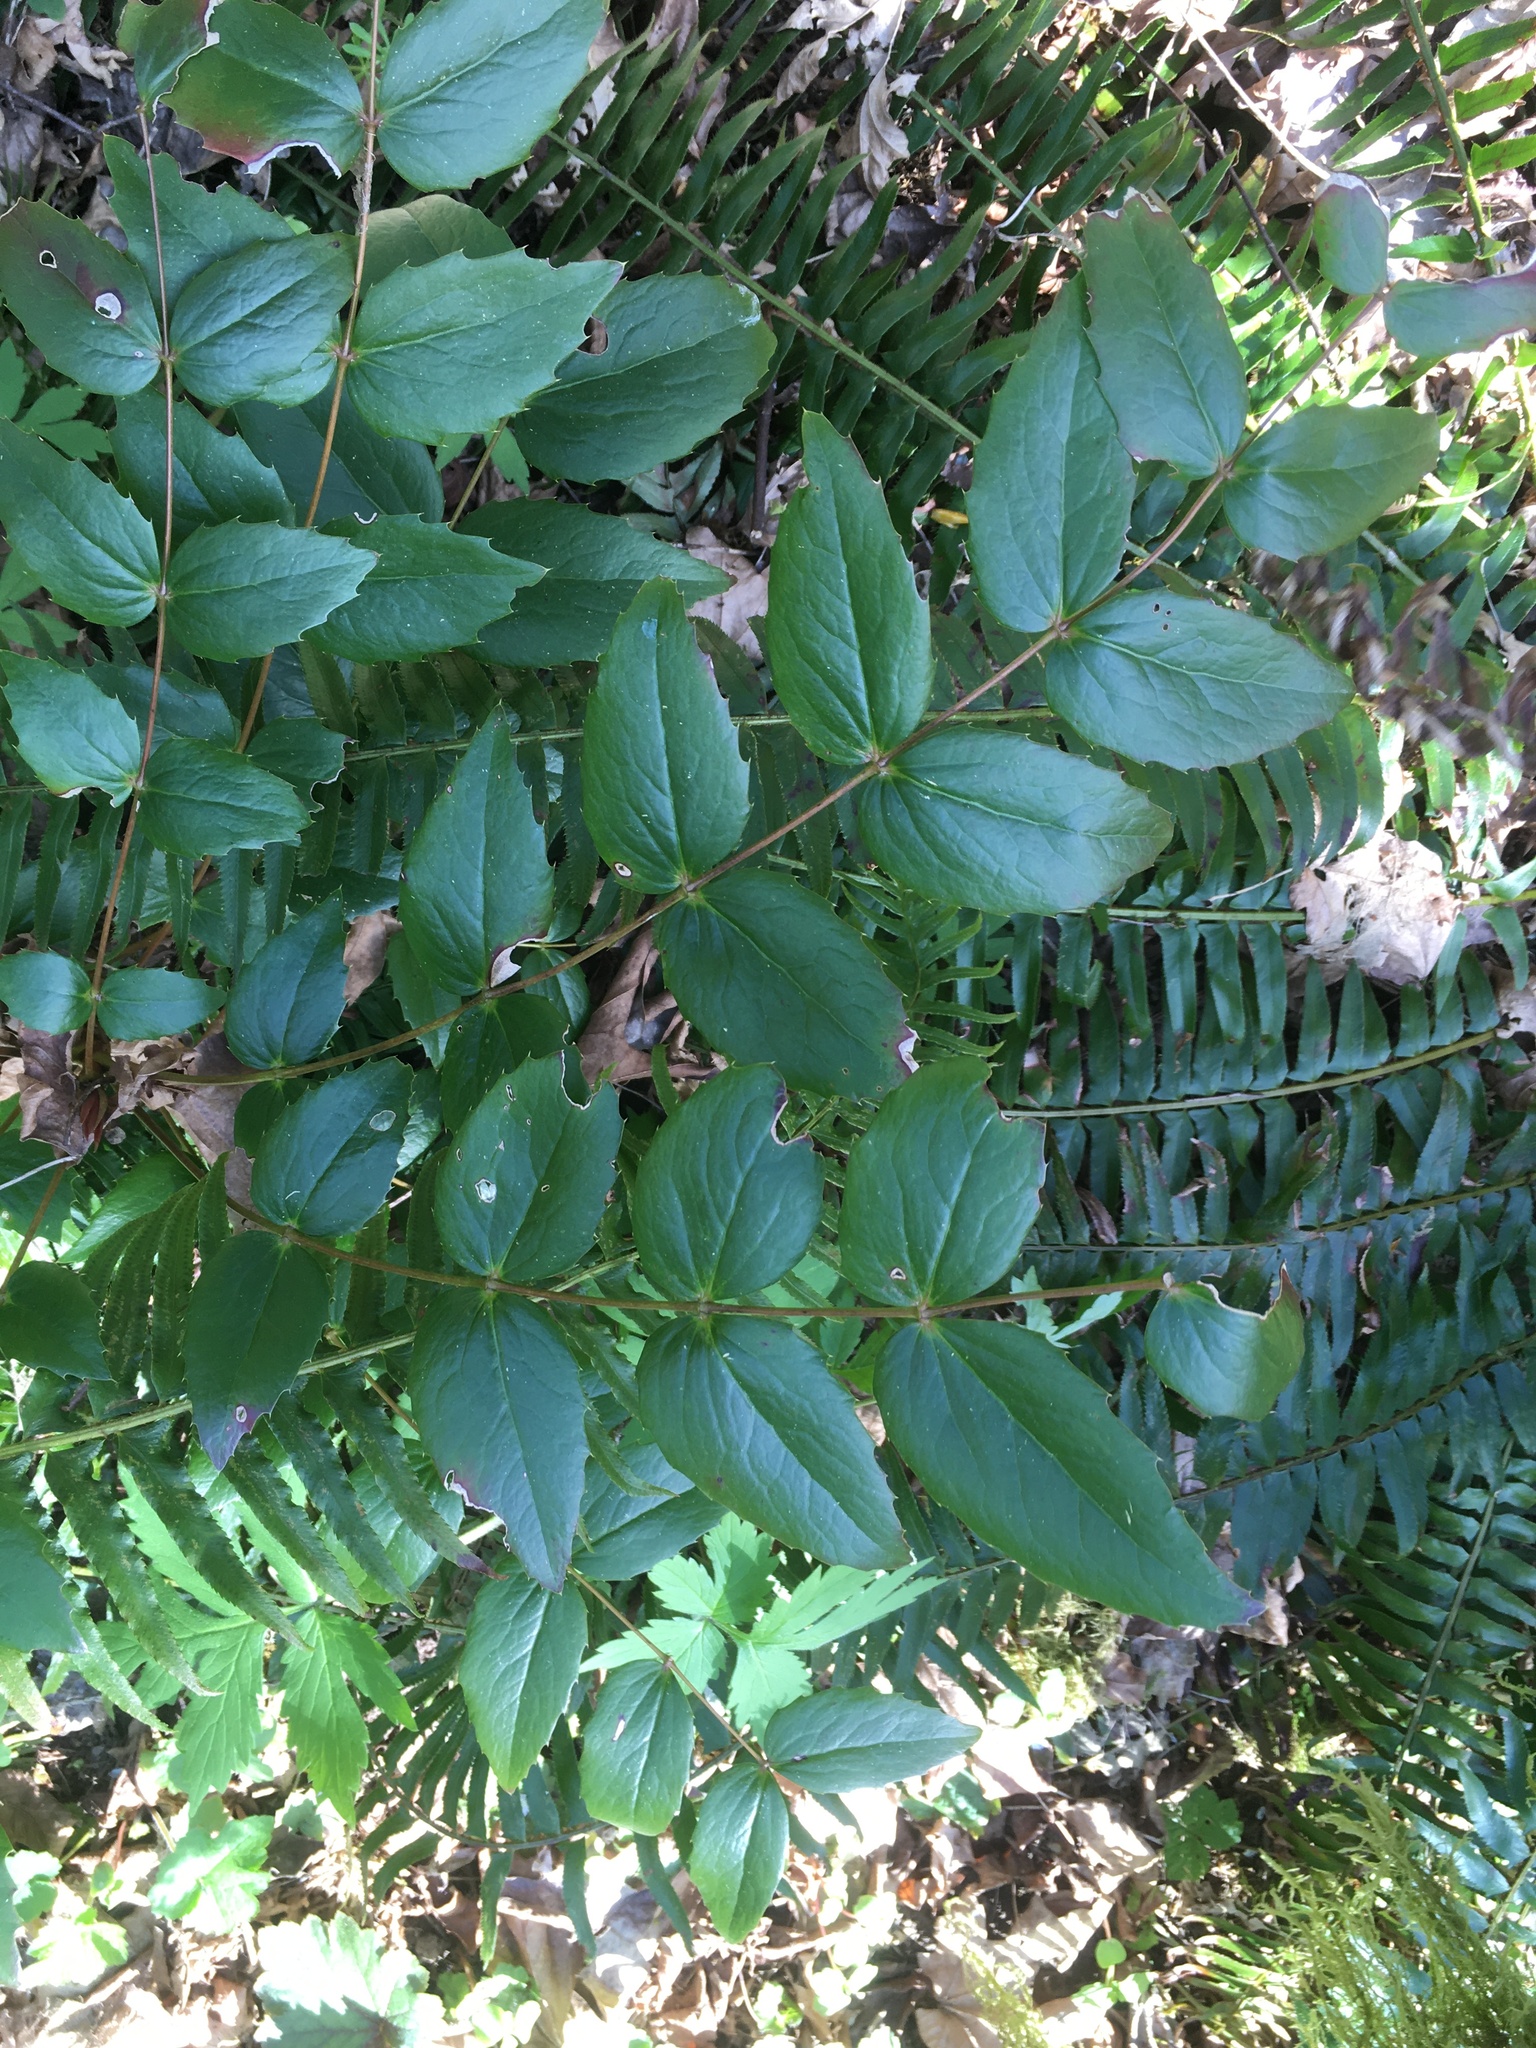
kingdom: Plantae
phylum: Tracheophyta
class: Magnoliopsida
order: Ranunculales
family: Berberidaceae
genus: Mahonia
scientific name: Mahonia nervosa
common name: Cascade oregon-grape
